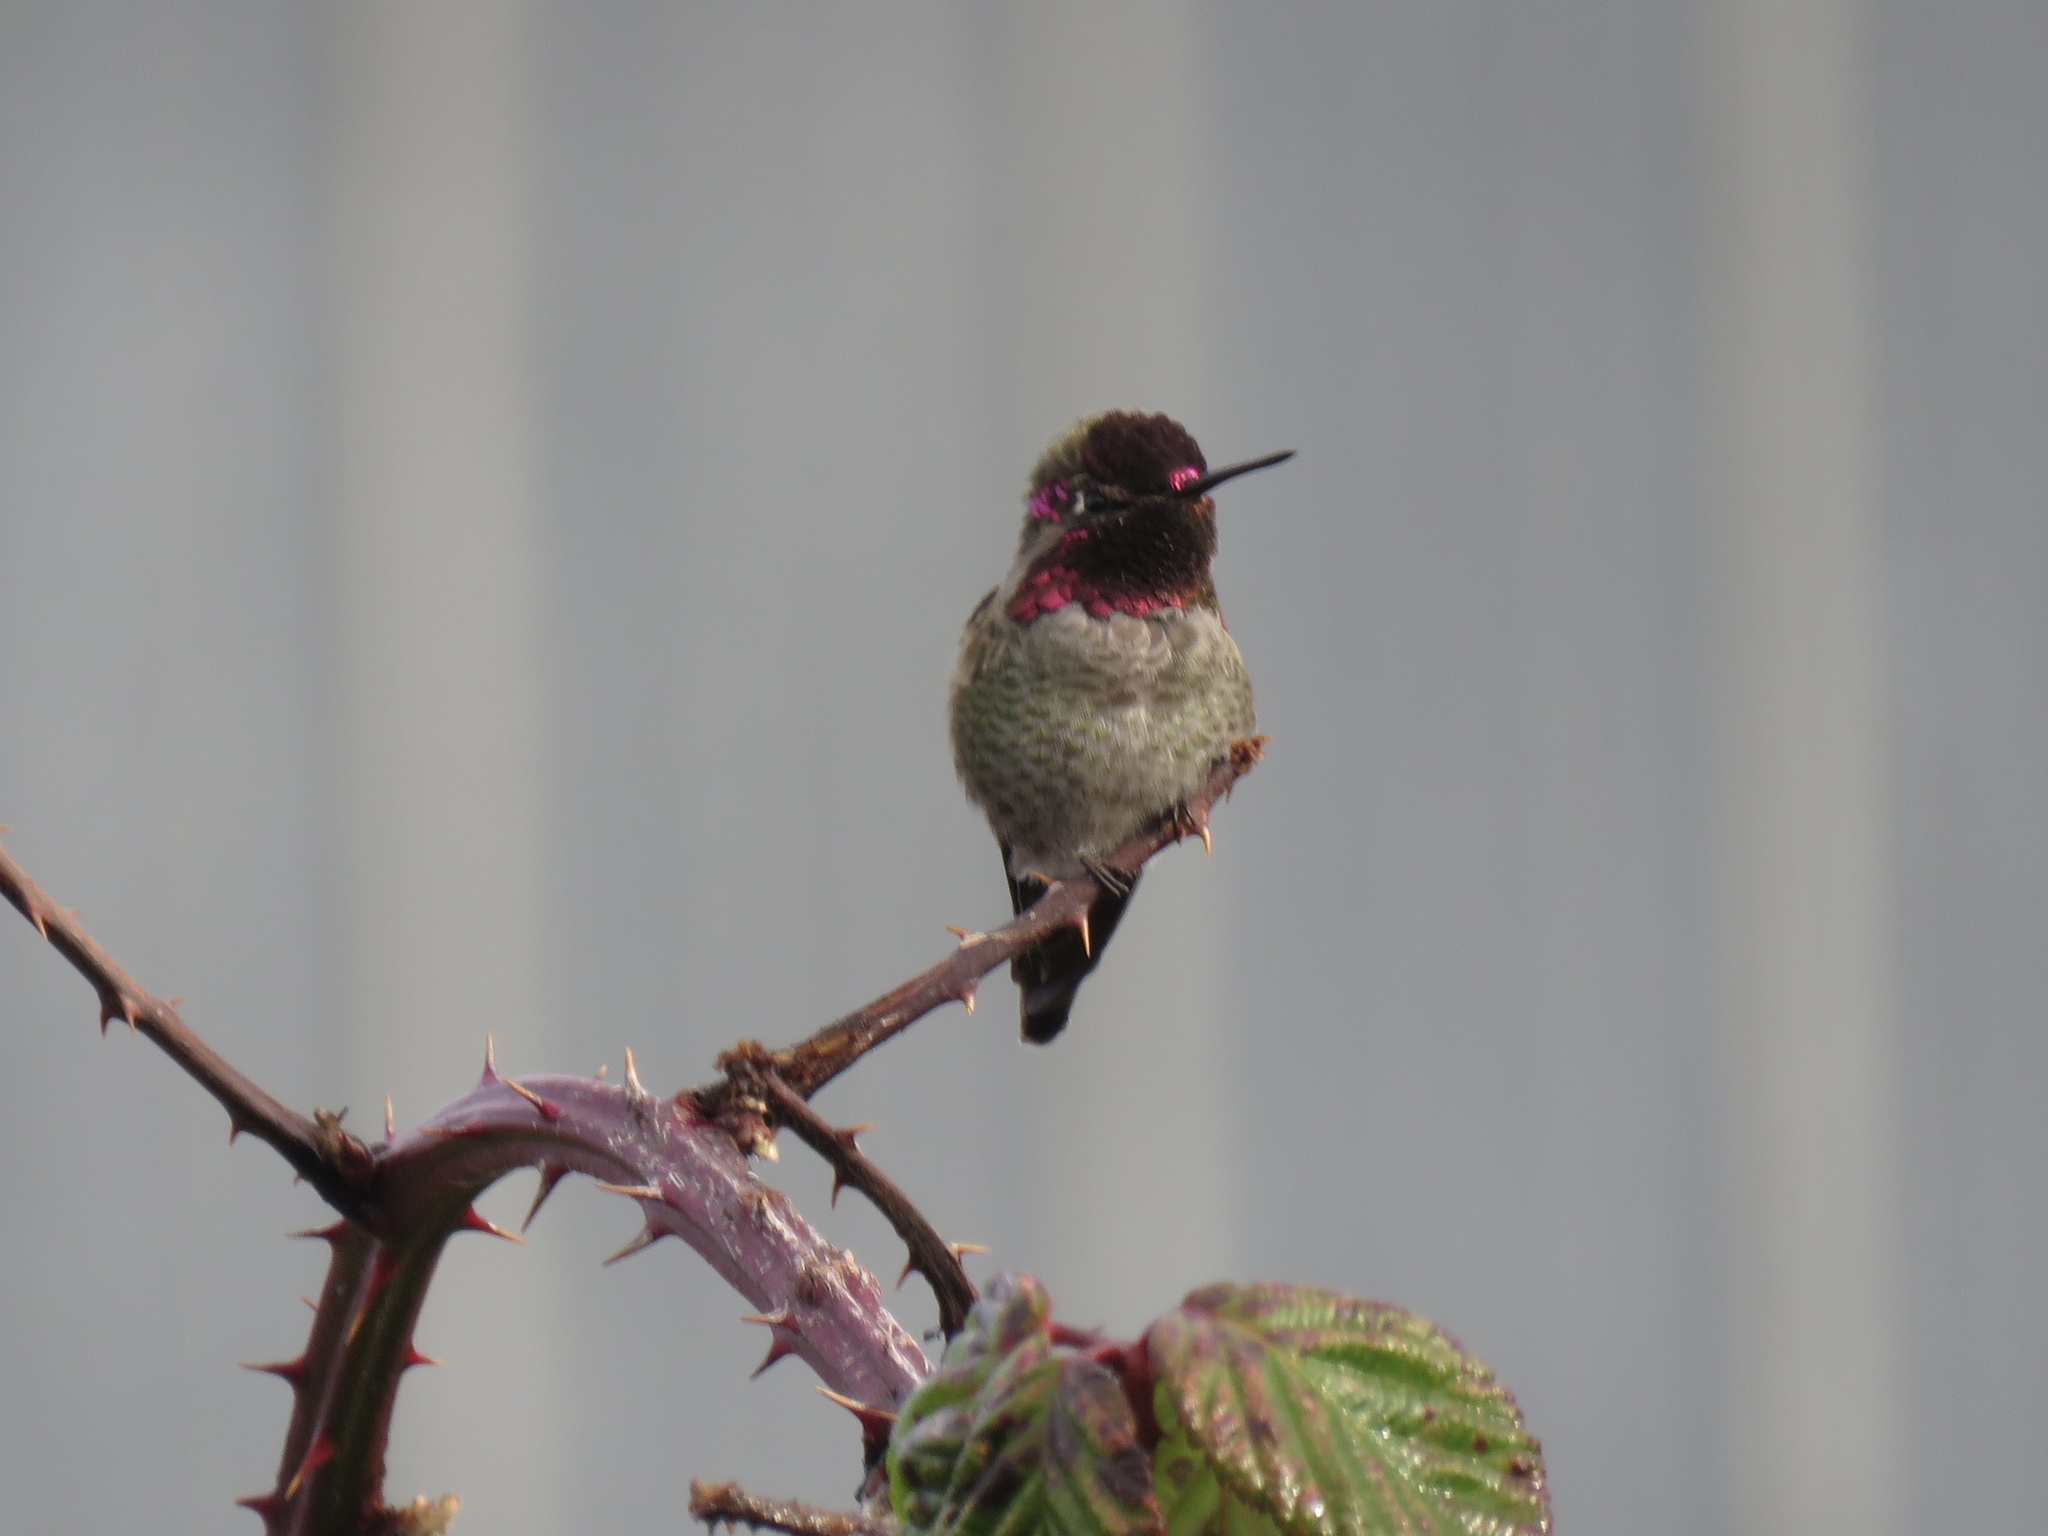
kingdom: Animalia
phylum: Chordata
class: Aves
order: Apodiformes
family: Trochilidae
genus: Calypte
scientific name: Calypte anna
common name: Anna's hummingbird
